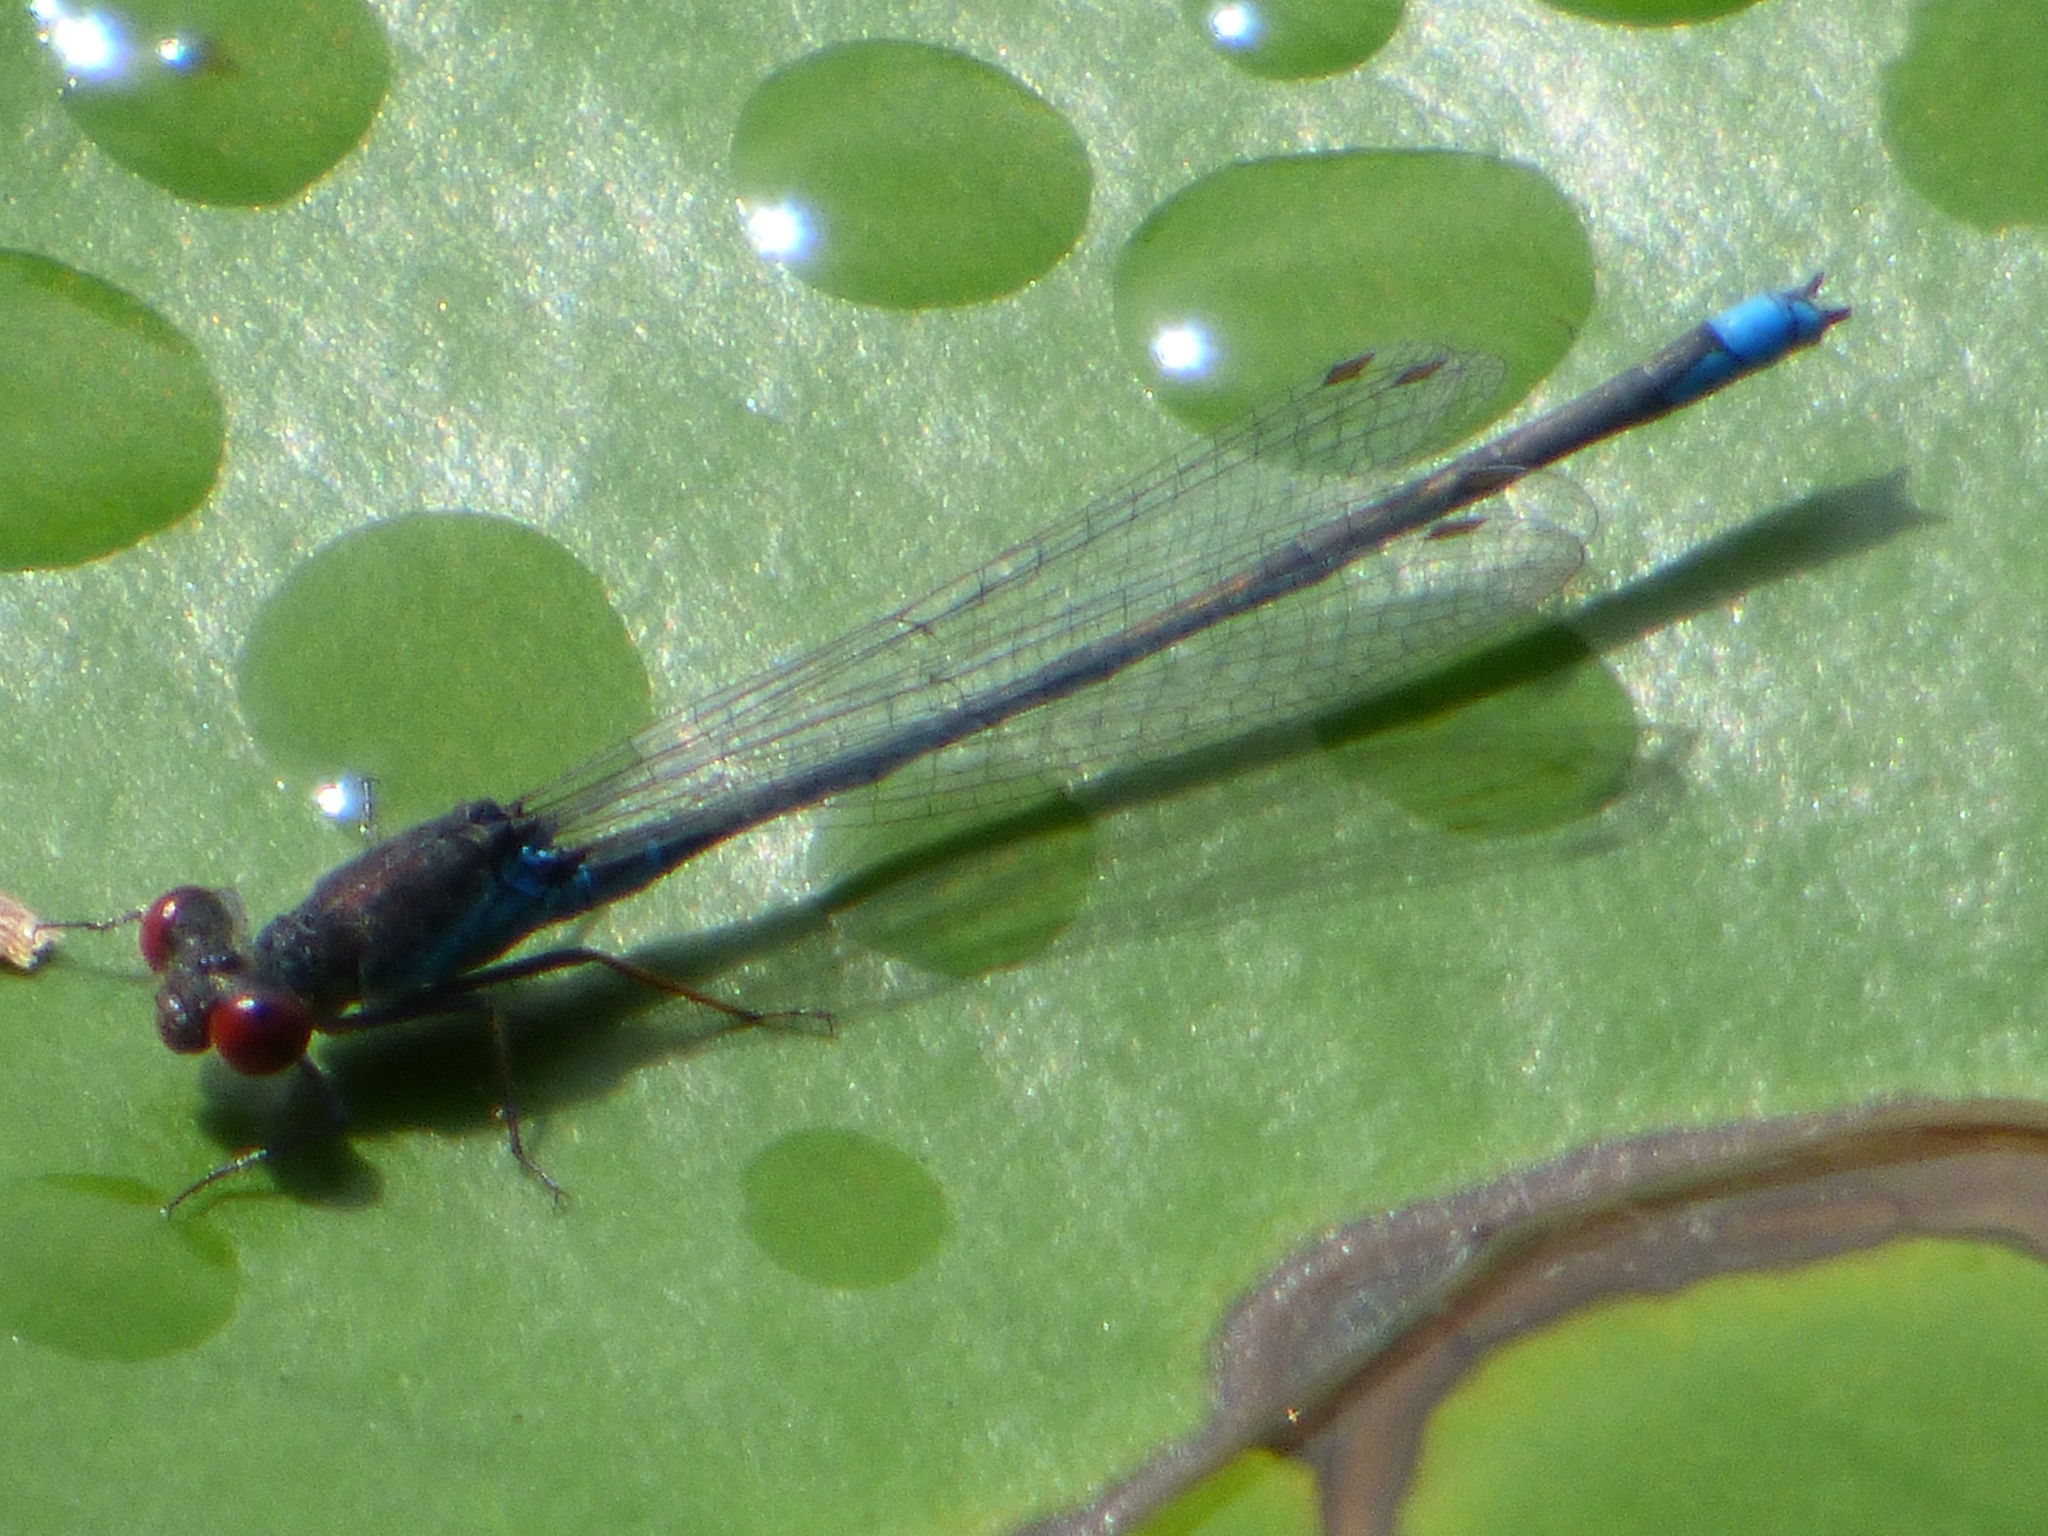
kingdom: Animalia
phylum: Arthropoda
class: Insecta
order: Odonata
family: Coenagrionidae
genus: Erythromma
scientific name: Erythromma viridulum
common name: Small red-eyed damselfly
